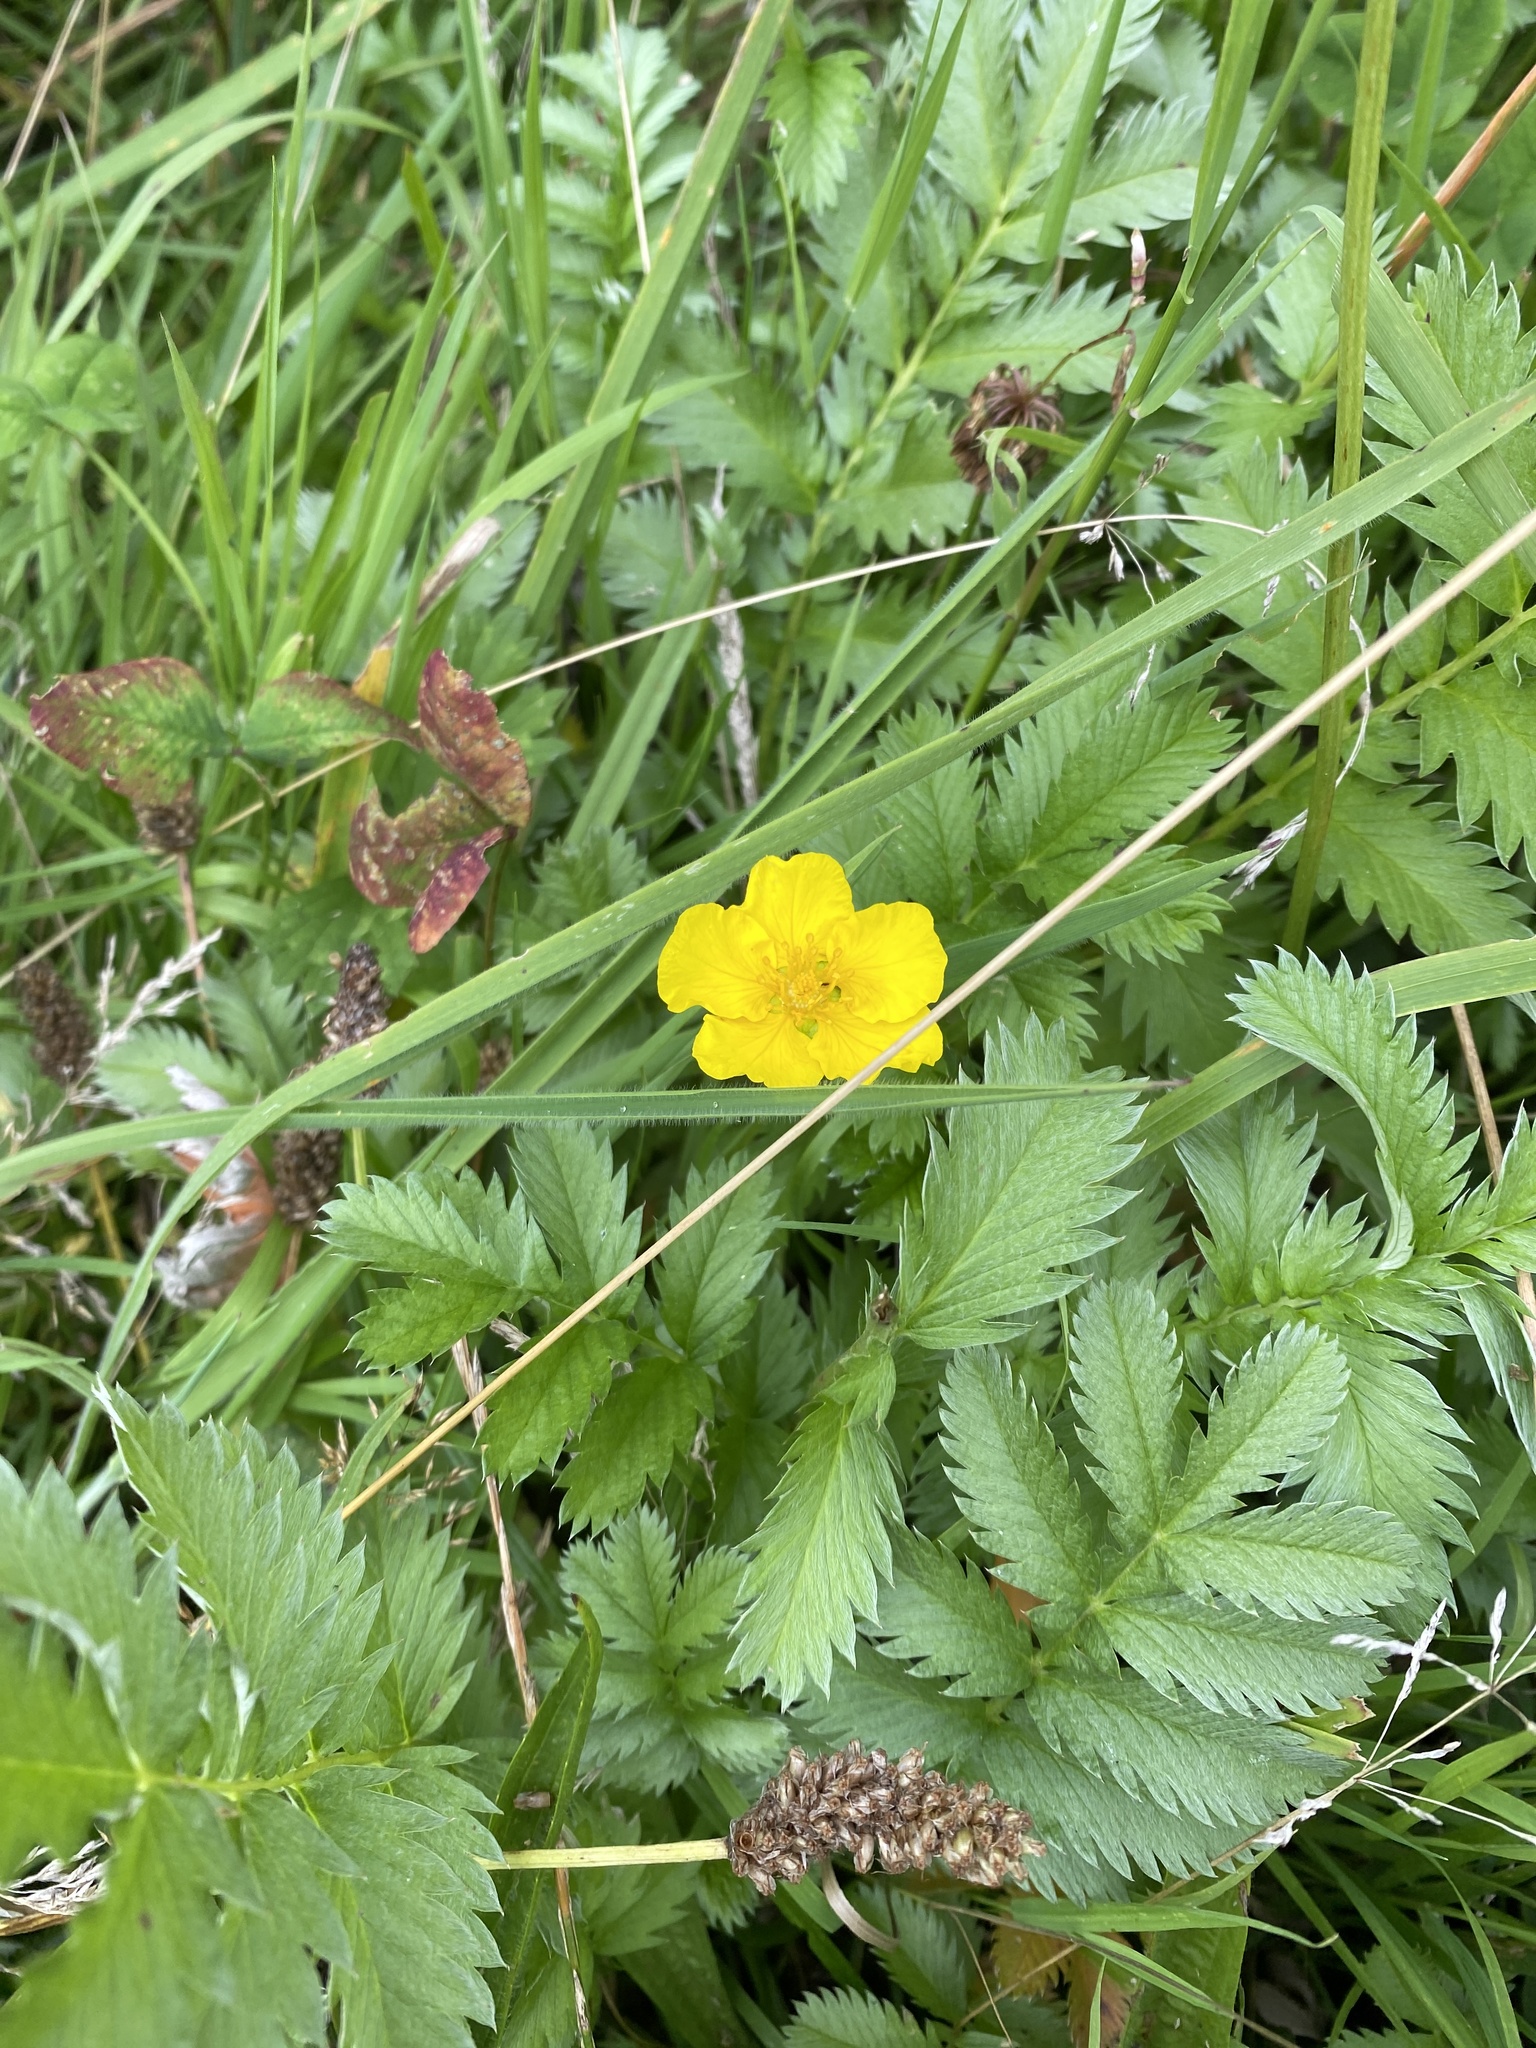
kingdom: Plantae
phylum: Tracheophyta
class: Magnoliopsida
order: Rosales
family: Rosaceae
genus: Argentina
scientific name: Argentina anserina
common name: Common silverweed
